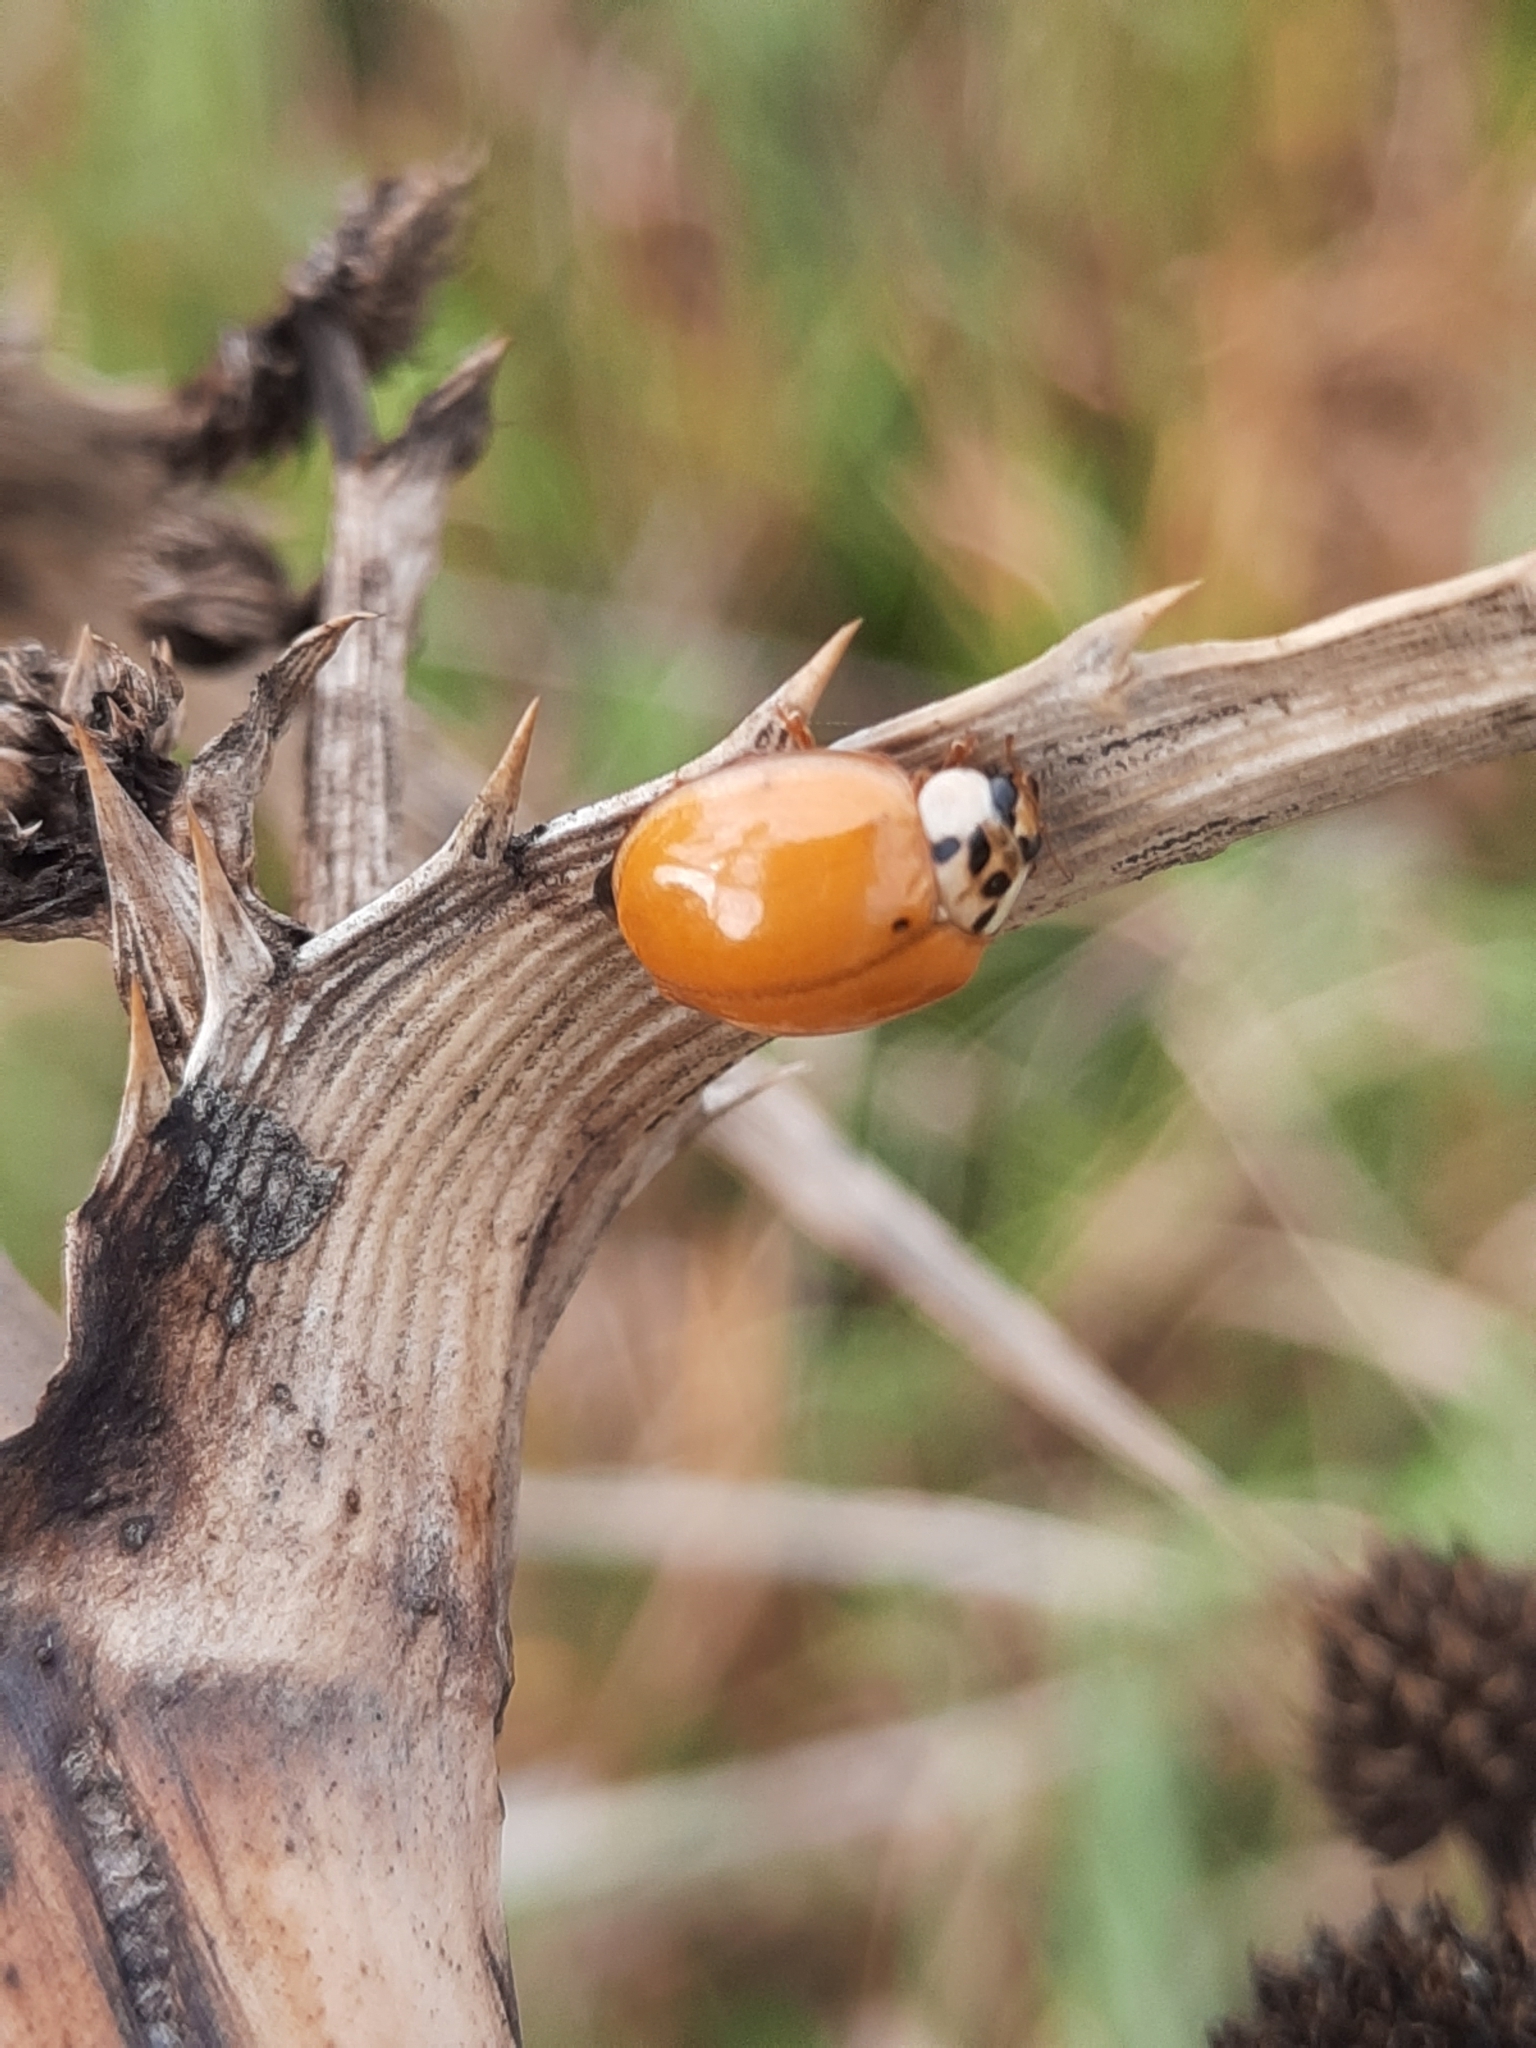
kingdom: Animalia
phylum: Arthropoda
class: Insecta
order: Coleoptera
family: Coccinellidae
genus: Harmonia
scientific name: Harmonia axyridis
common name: Harlequin ladybird
